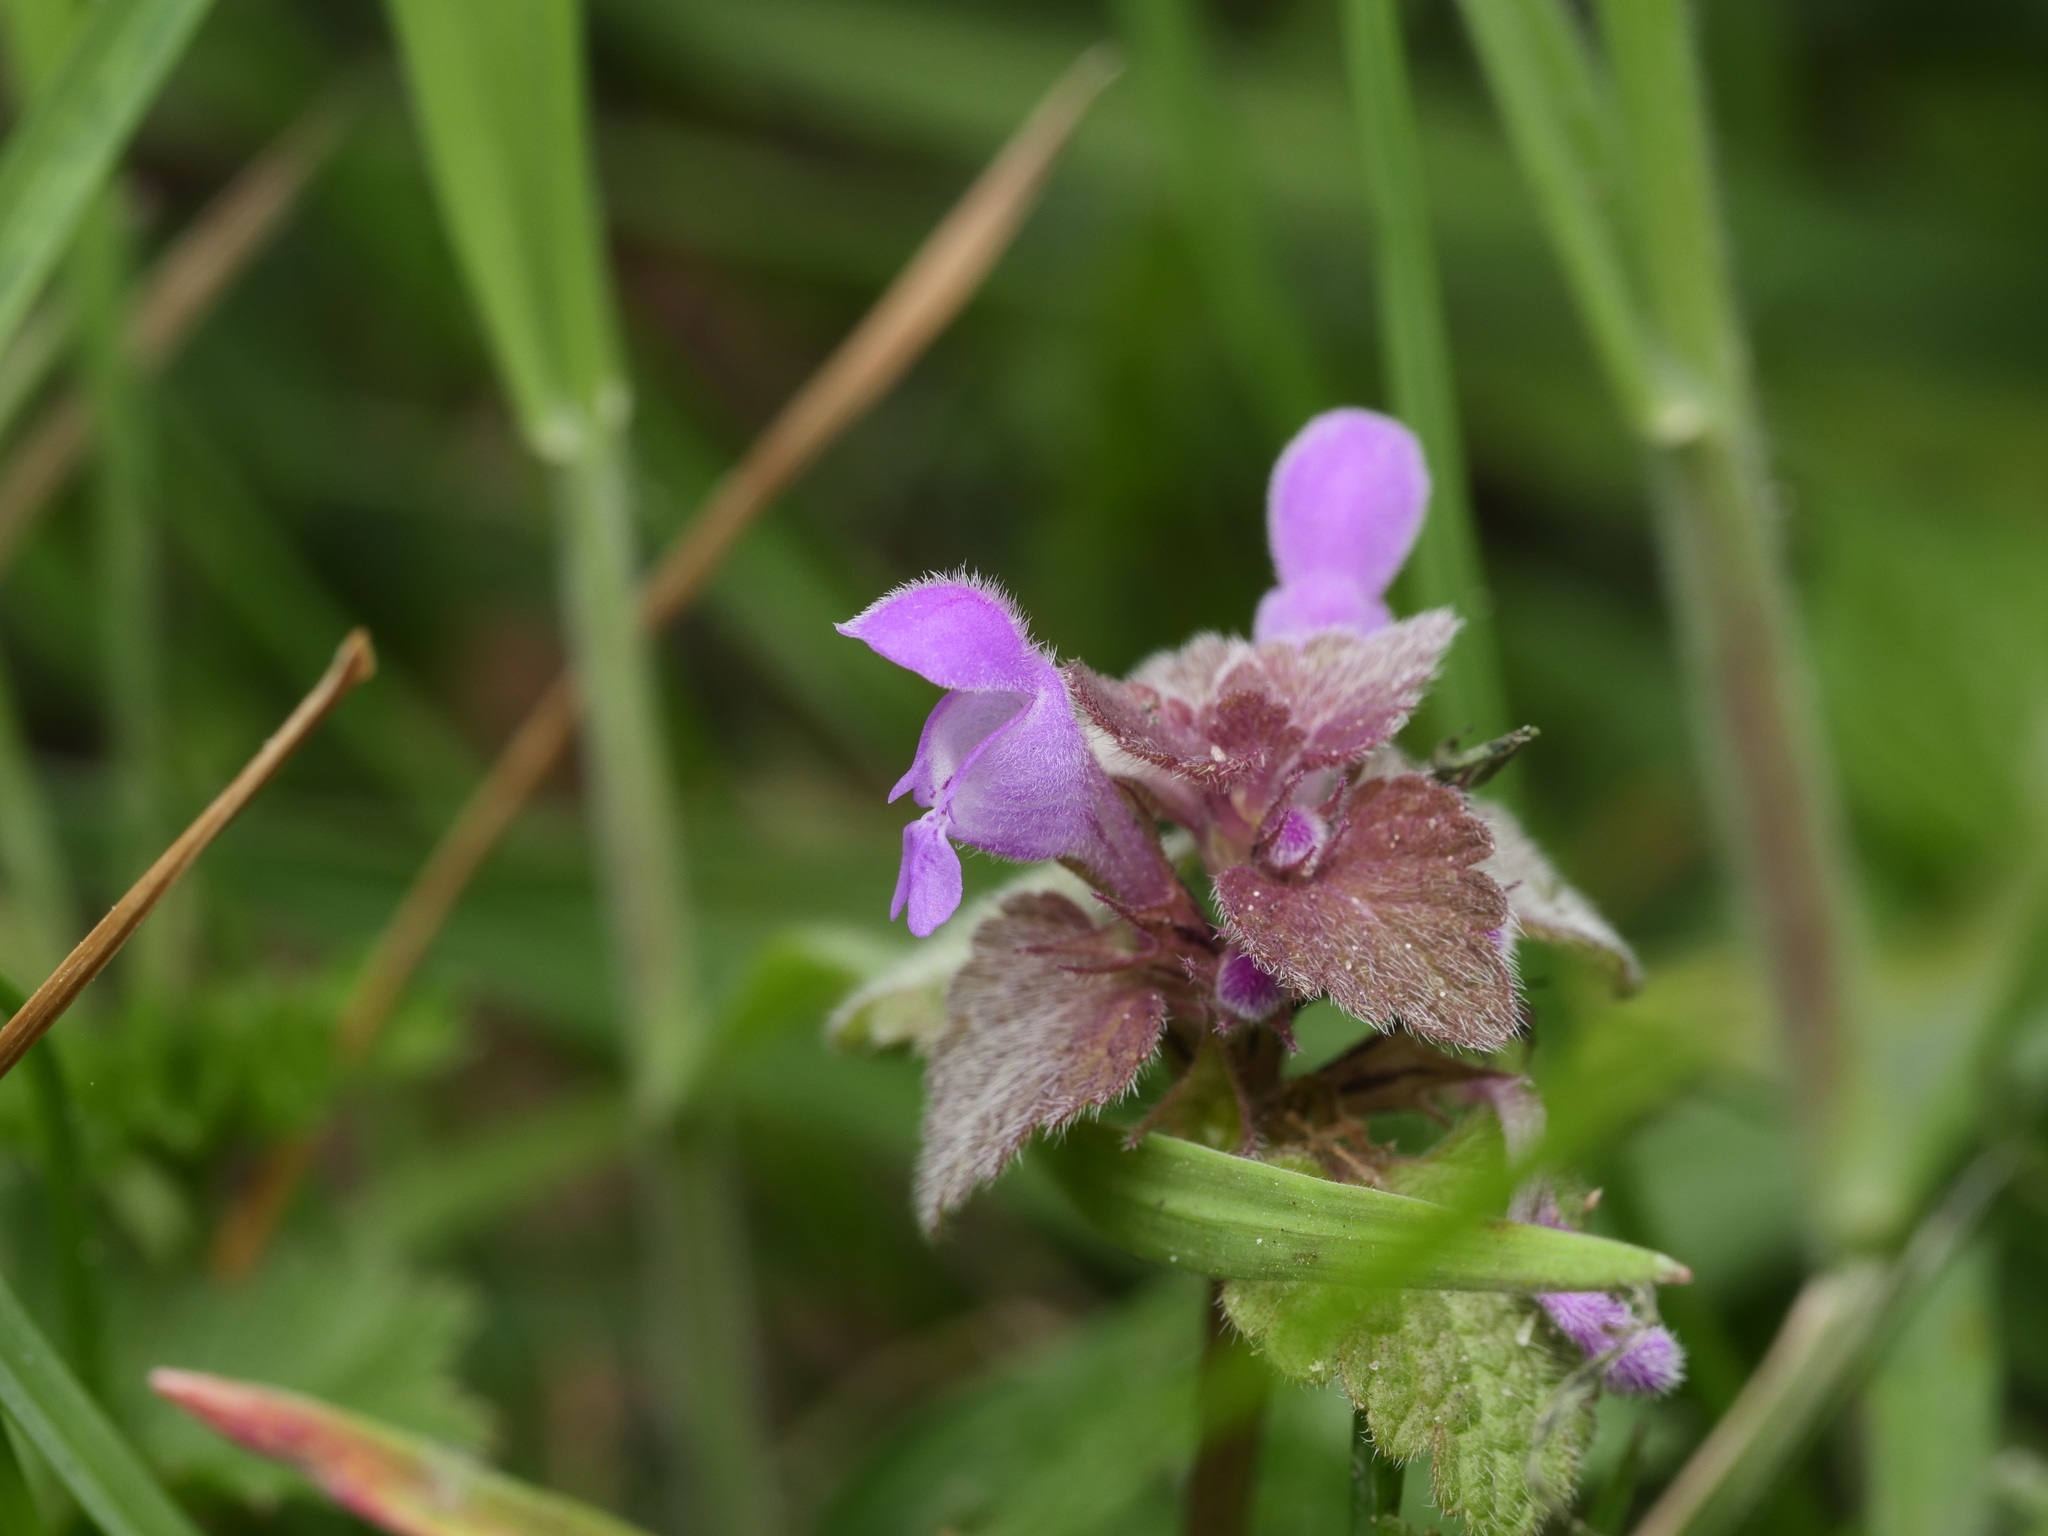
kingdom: Plantae
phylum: Tracheophyta
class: Magnoliopsida
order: Lamiales
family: Lamiaceae
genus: Lamium
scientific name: Lamium purpureum
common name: Red dead-nettle
